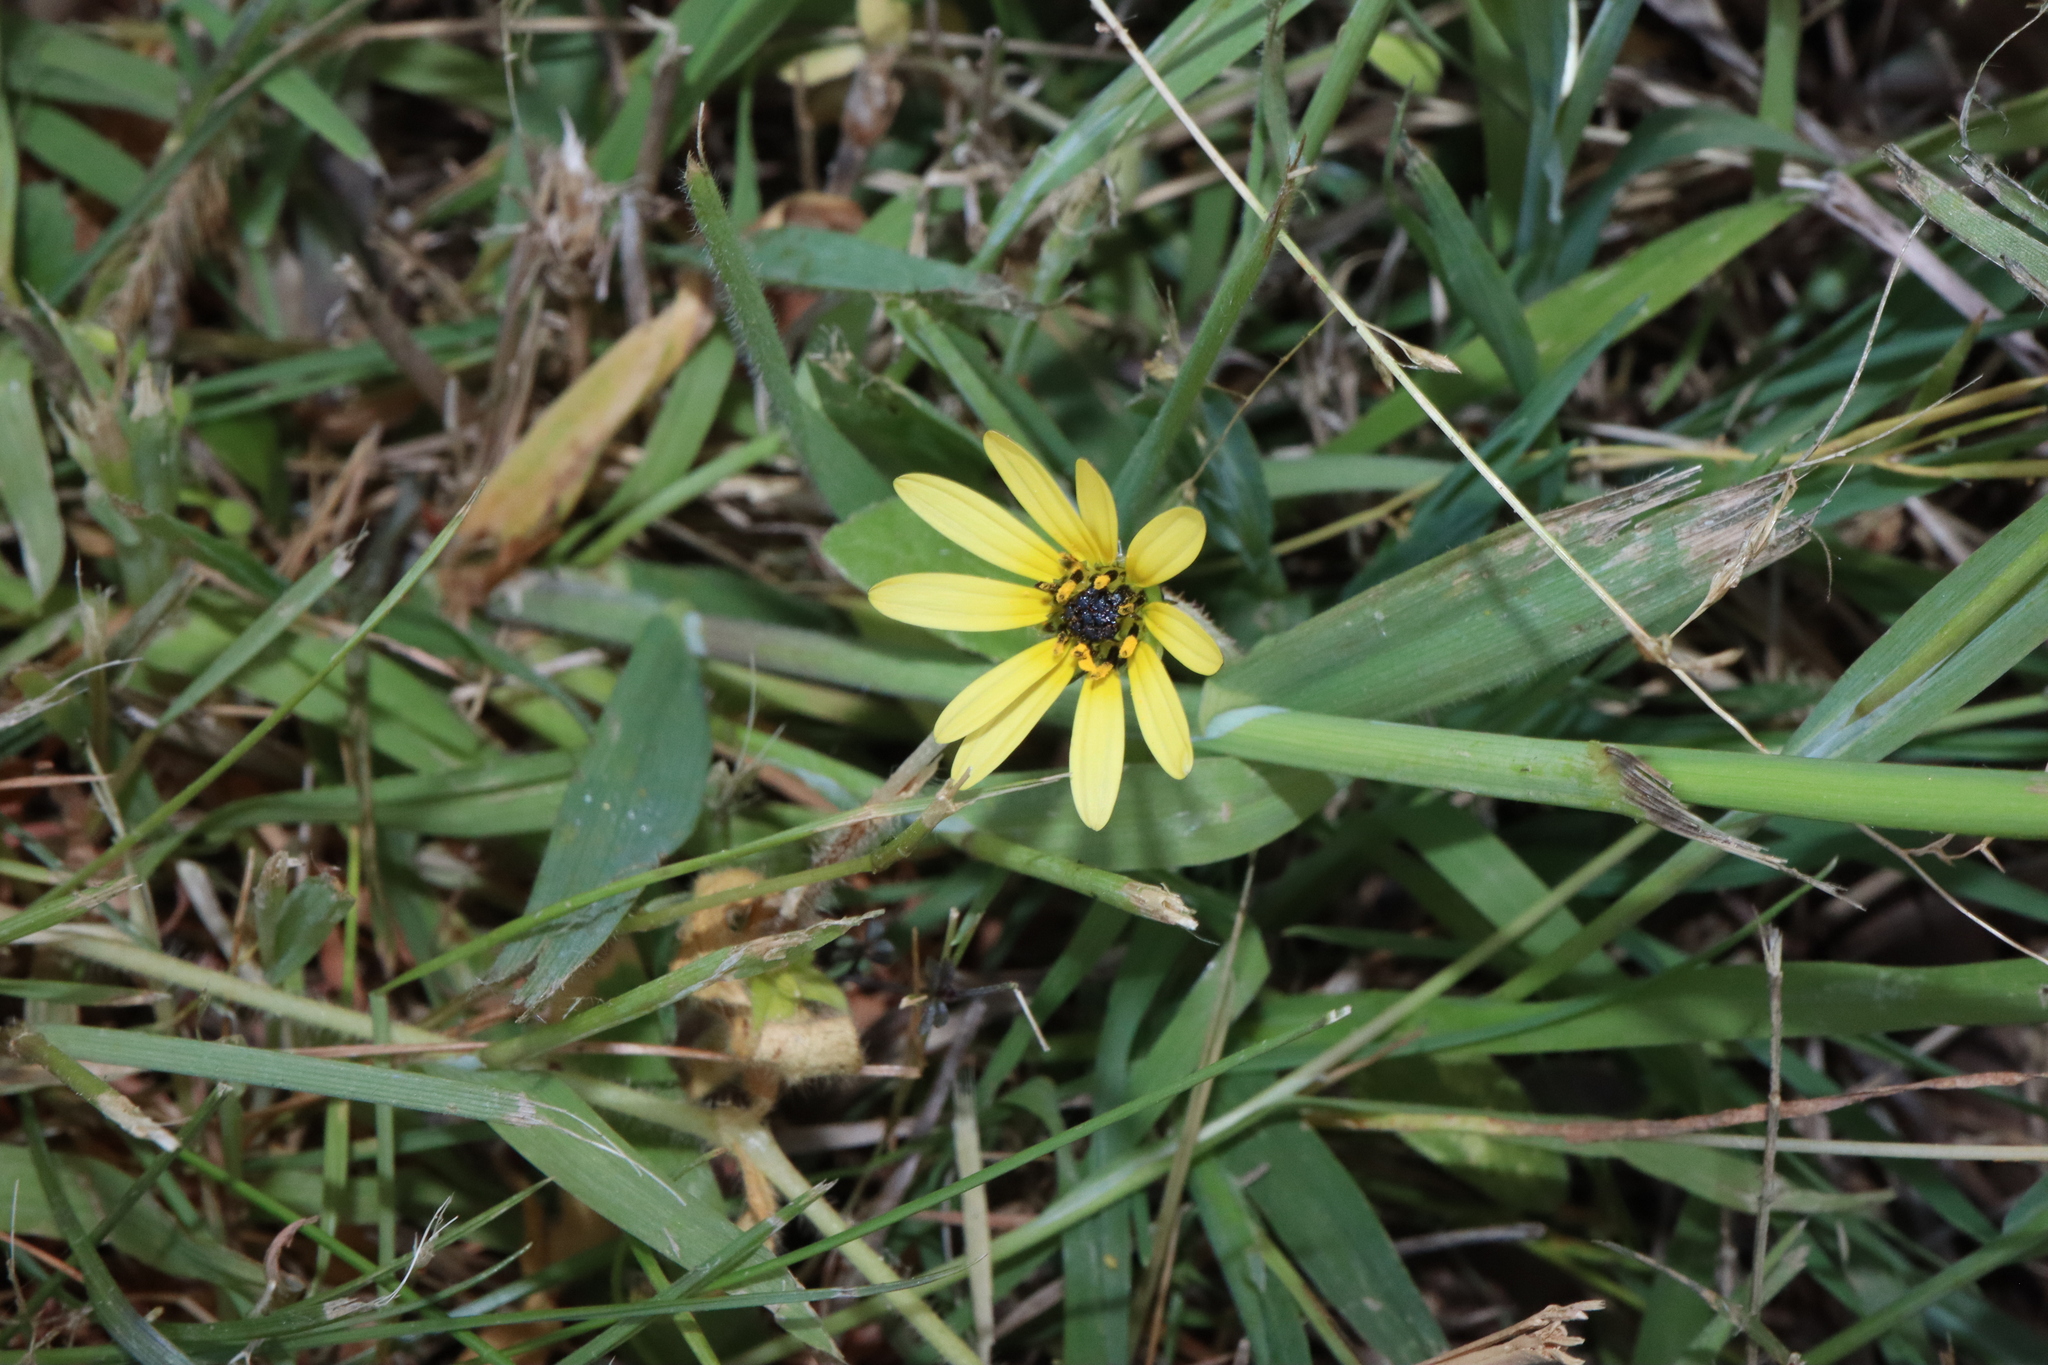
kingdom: Plantae
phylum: Tracheophyta
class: Magnoliopsida
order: Asterales
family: Asteraceae
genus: Arctotheca
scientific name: Arctotheca calendula
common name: Capeweed
